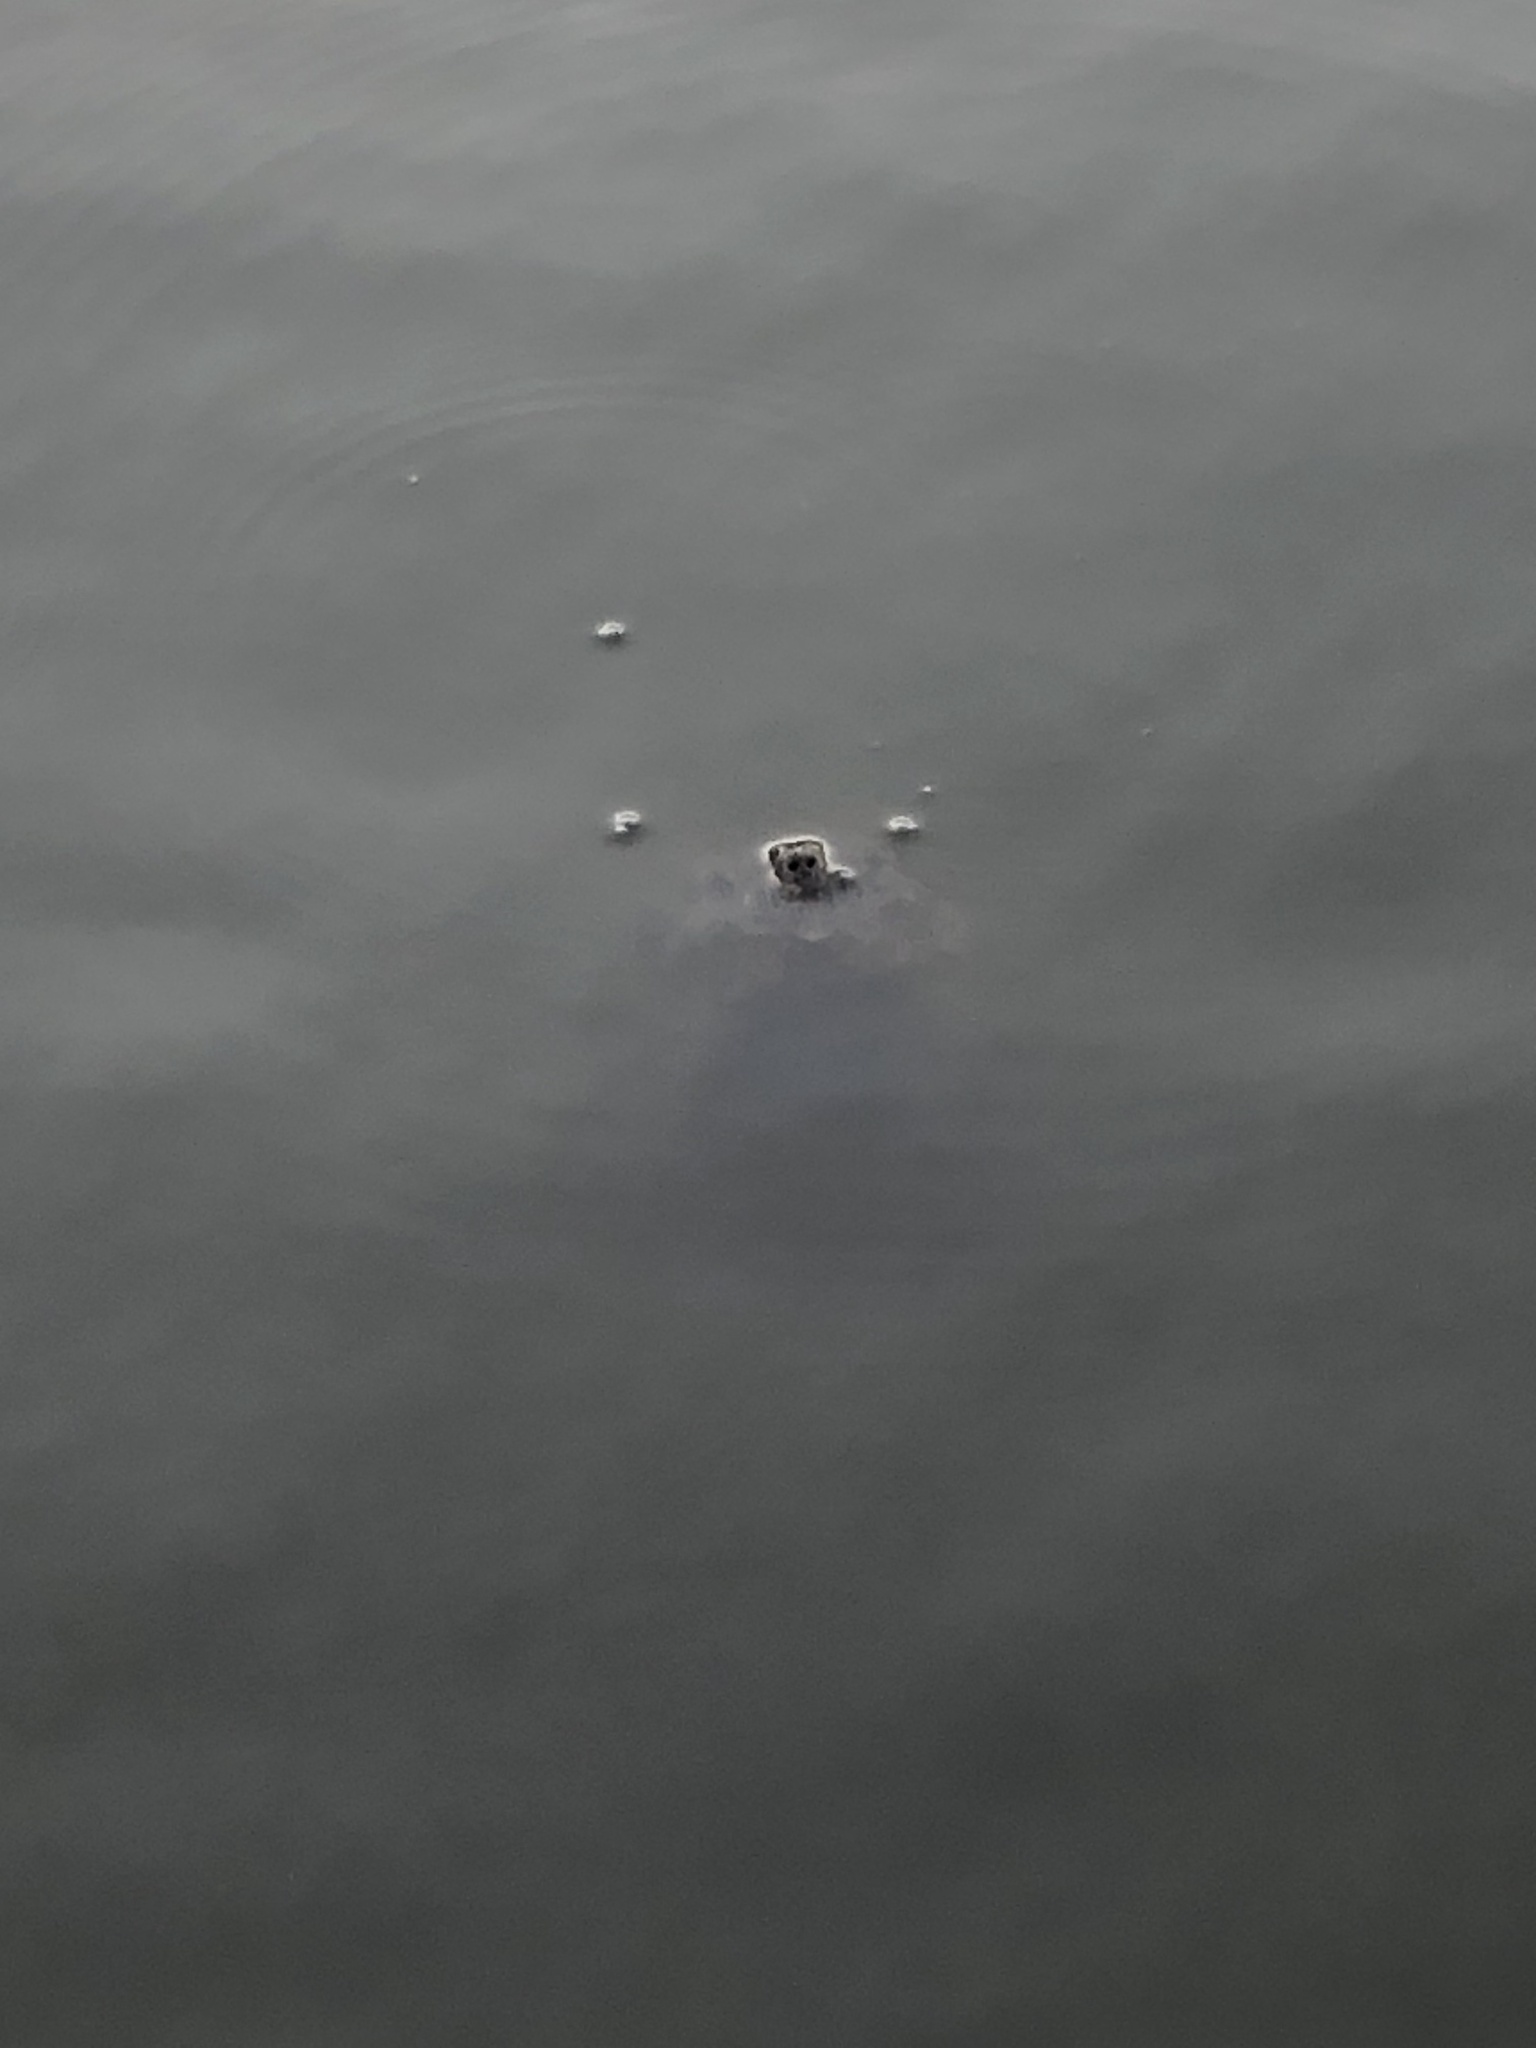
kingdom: Animalia
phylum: Chordata
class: Testudines
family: Chelydridae
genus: Chelydra
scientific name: Chelydra serpentina
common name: Common snapping turtle
